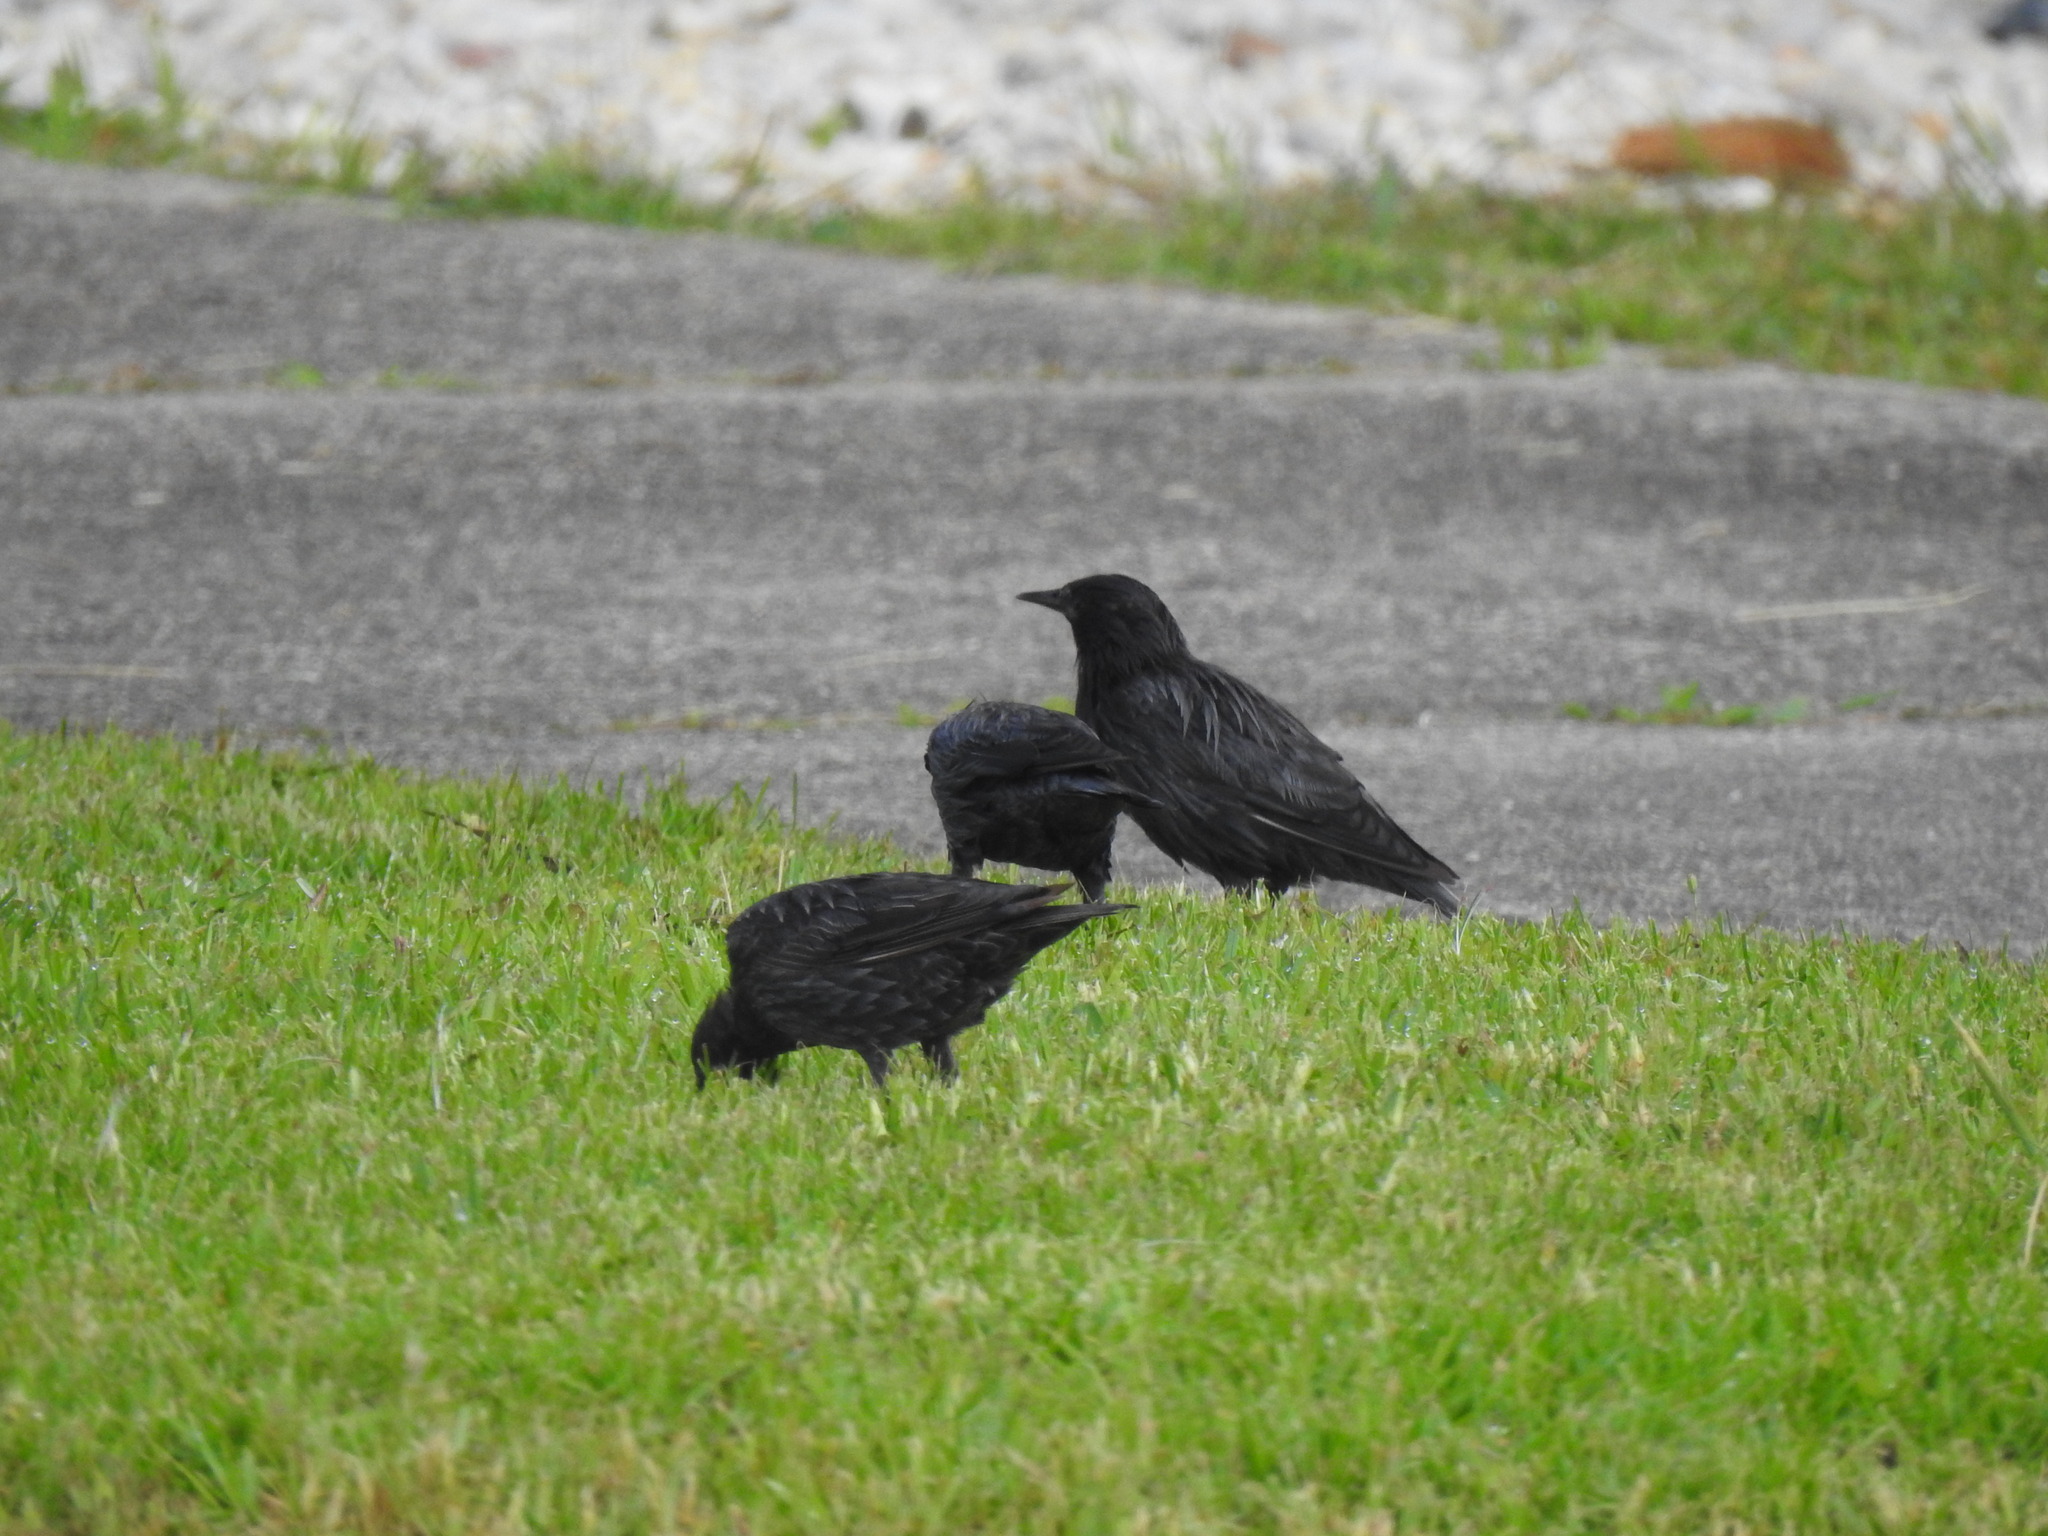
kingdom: Animalia
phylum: Chordata
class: Aves
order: Passeriformes
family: Sturnidae
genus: Sturnus
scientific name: Sturnus unicolor
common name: Spotless starling
